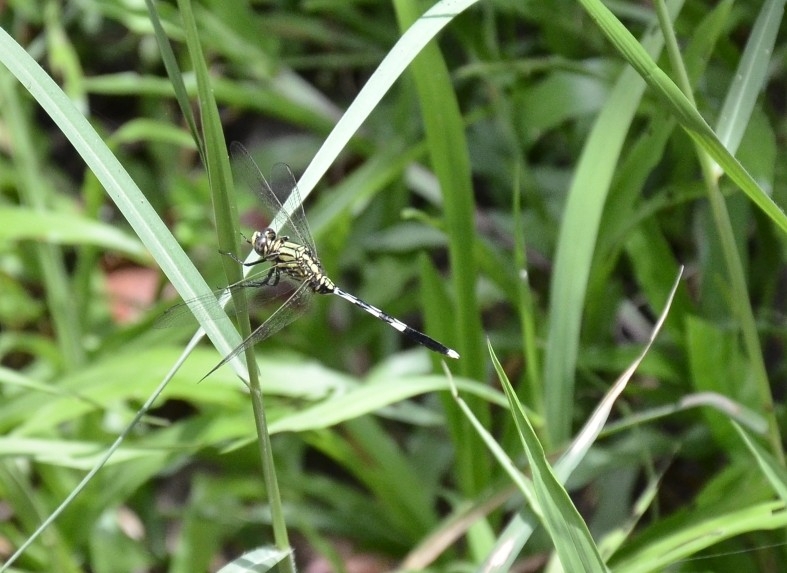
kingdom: Animalia
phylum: Arthropoda
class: Insecta
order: Odonata
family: Libellulidae
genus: Orthetrum
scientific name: Orthetrum sabina
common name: Slender skimmer
